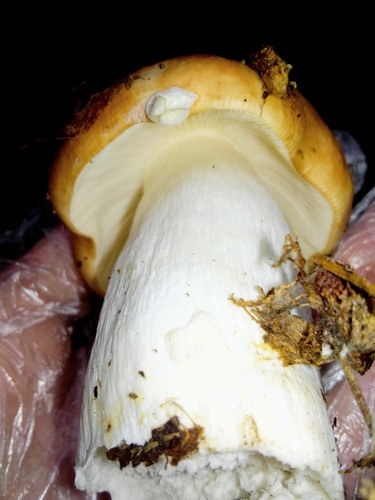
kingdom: Fungi
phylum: Basidiomycota
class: Agaricomycetes
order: Russulales
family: Russulaceae
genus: Russula
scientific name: Russula
